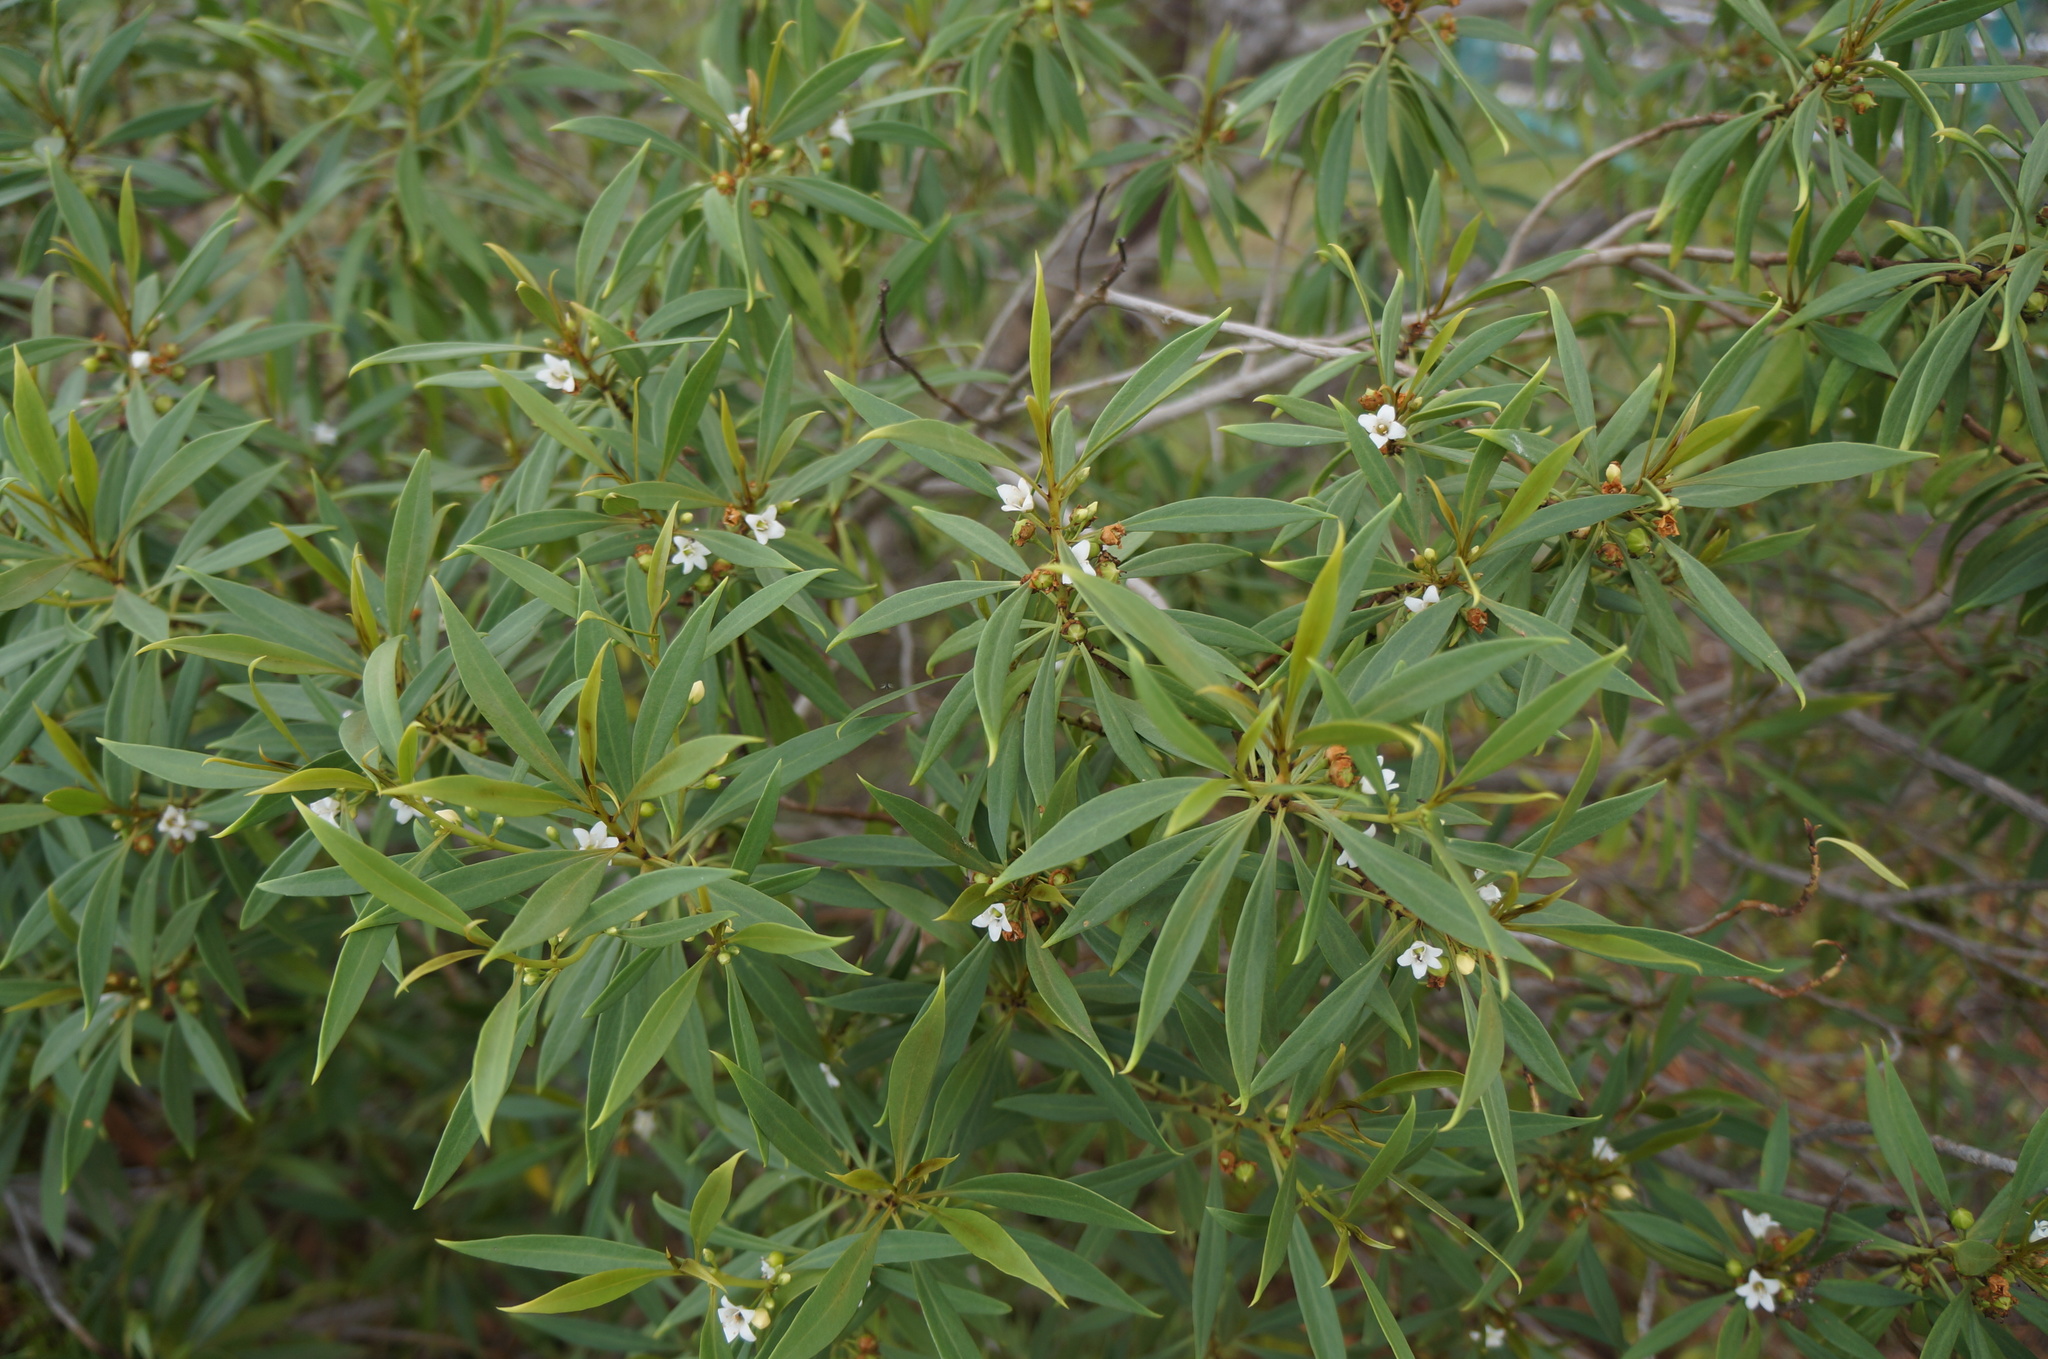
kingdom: Plantae
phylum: Tracheophyta
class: Magnoliopsida
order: Lamiales
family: Scrophulariaceae
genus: Myoporum
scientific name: Myoporum sandwicense
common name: Bastard-sandalwood
